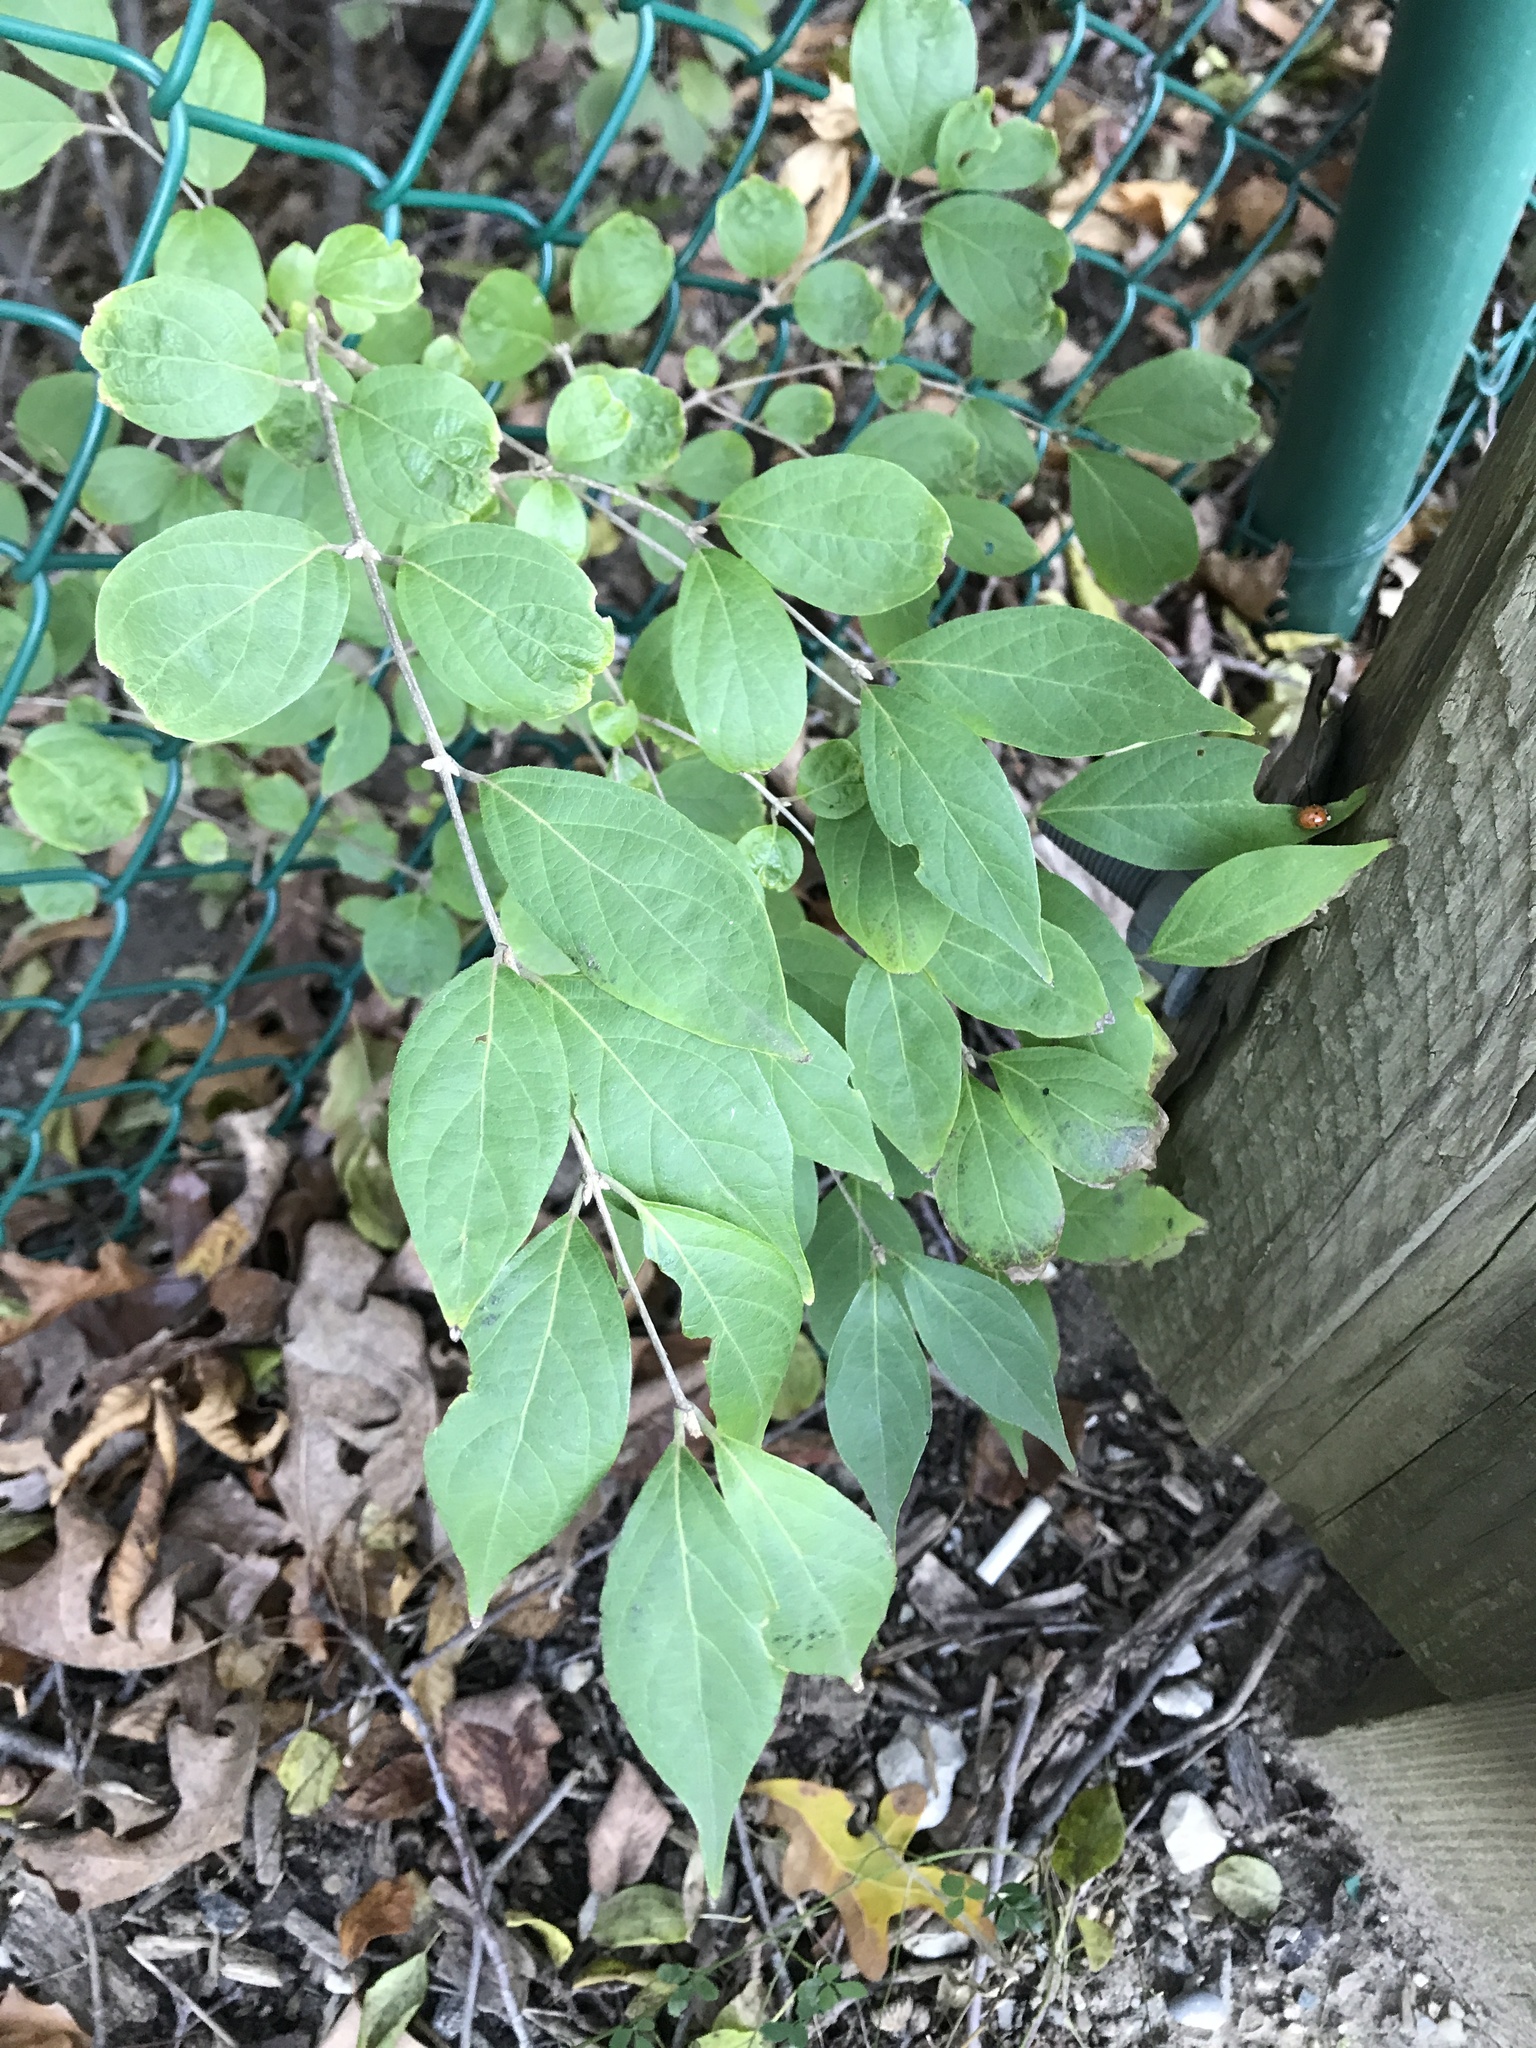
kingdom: Plantae
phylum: Tracheophyta
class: Magnoliopsida
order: Dipsacales
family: Caprifoliaceae
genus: Lonicera
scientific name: Lonicera maackii
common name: Amur honeysuckle
